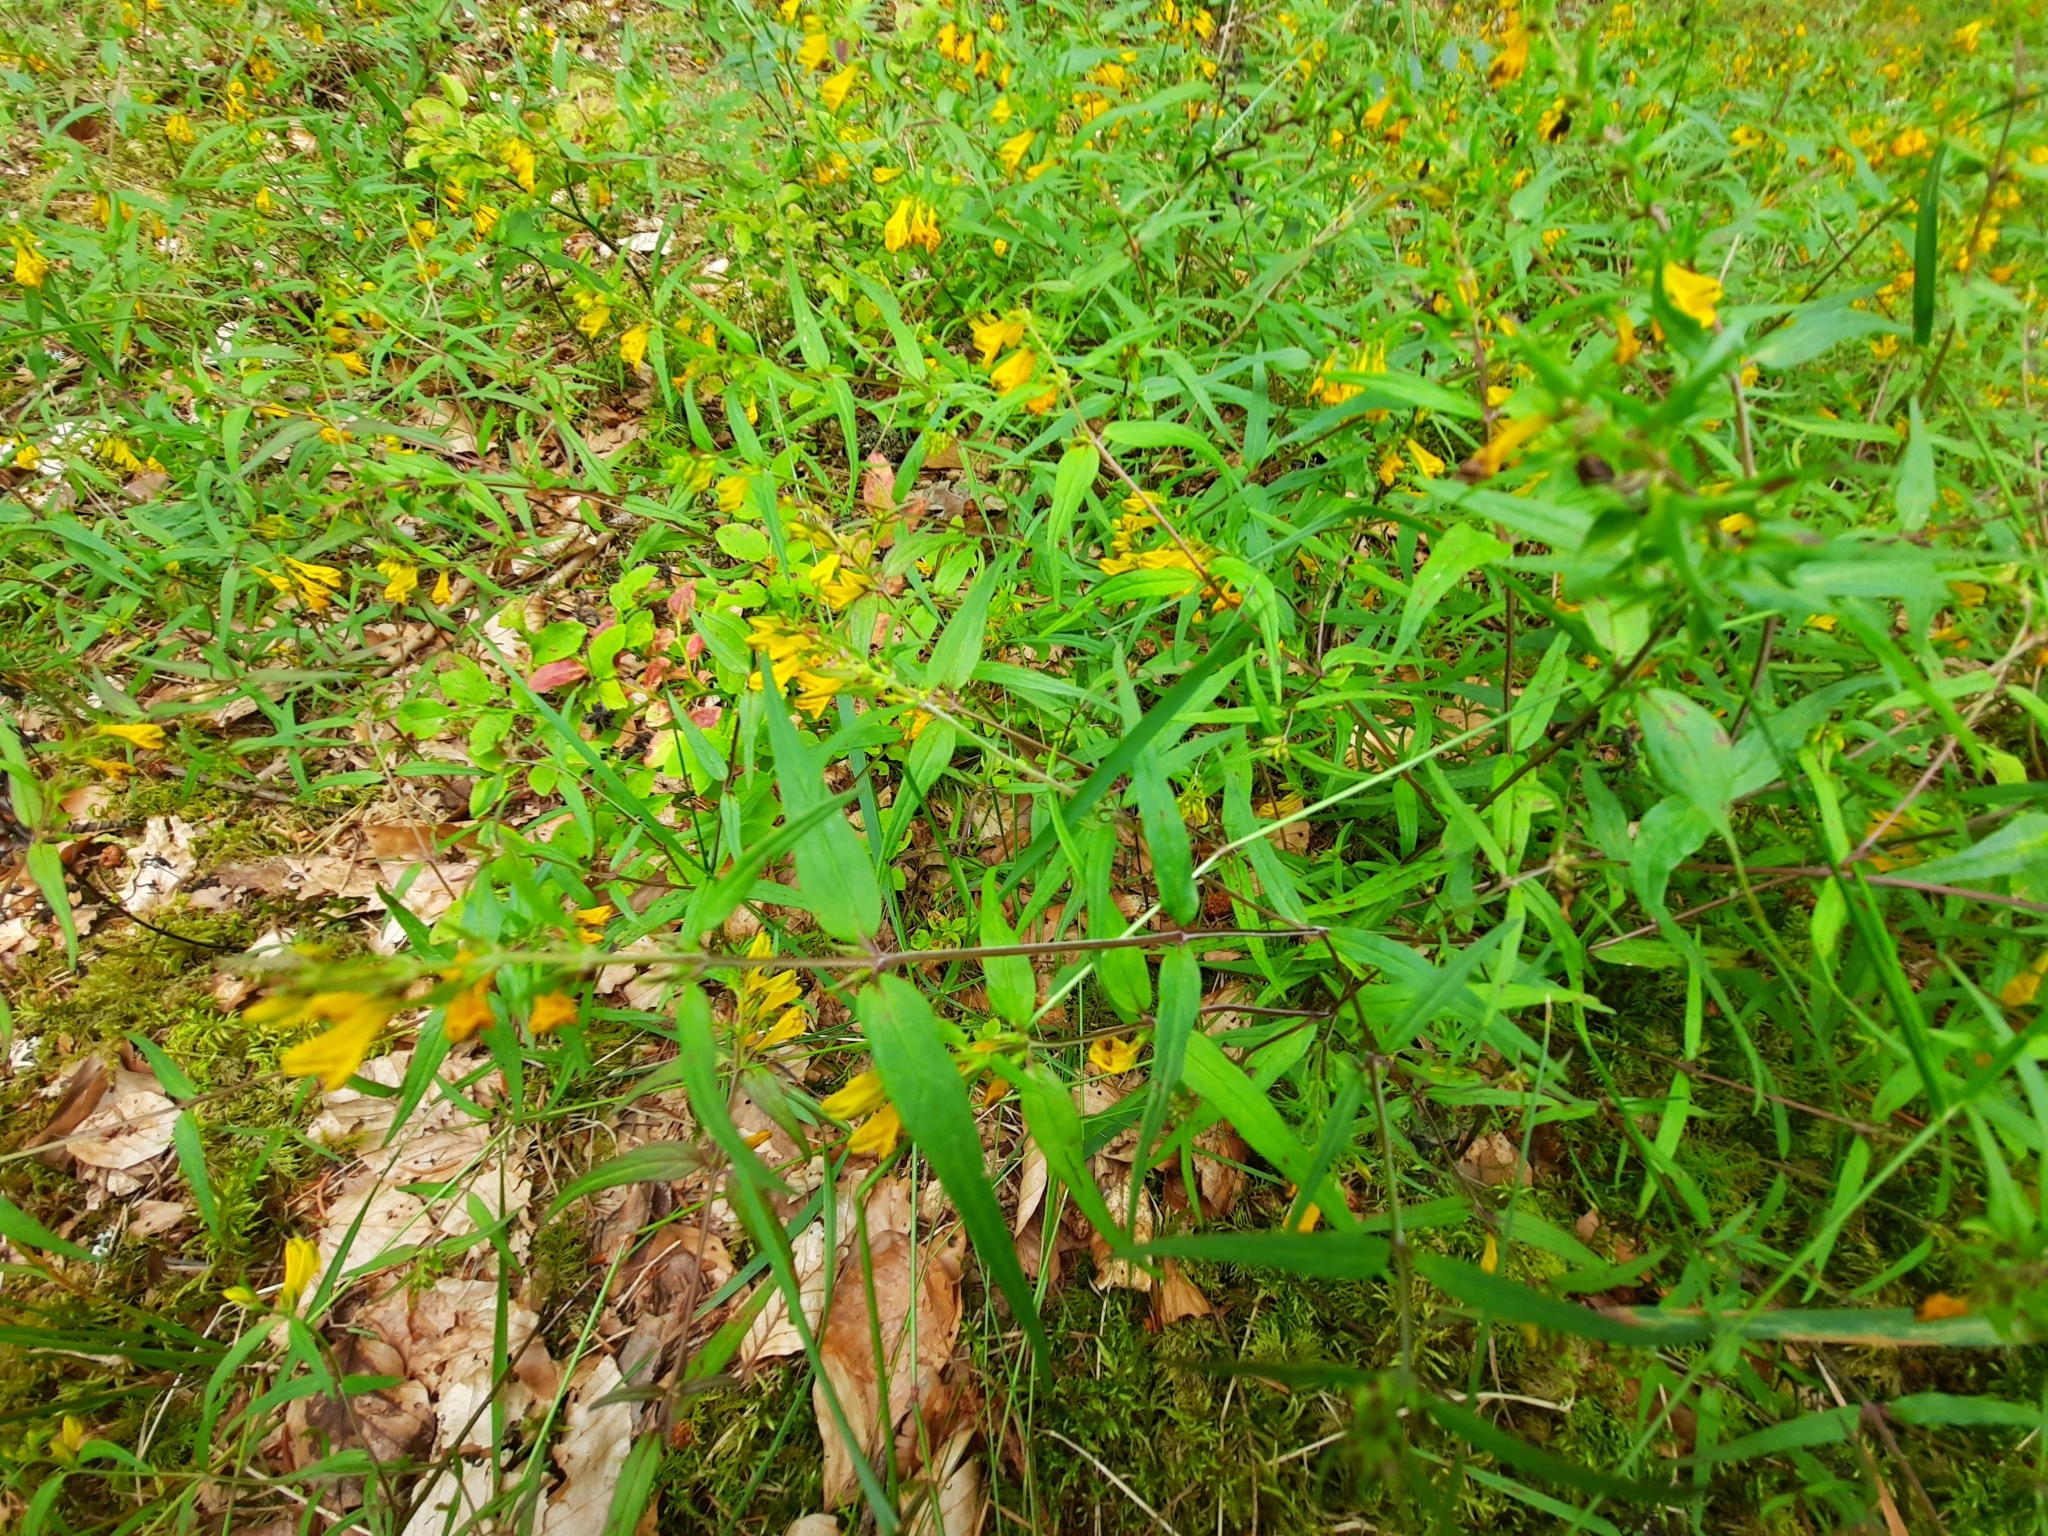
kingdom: Plantae
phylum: Tracheophyta
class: Magnoliopsida
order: Lamiales
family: Orobanchaceae
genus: Melampyrum
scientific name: Melampyrum pratense
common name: Common cow-wheat
